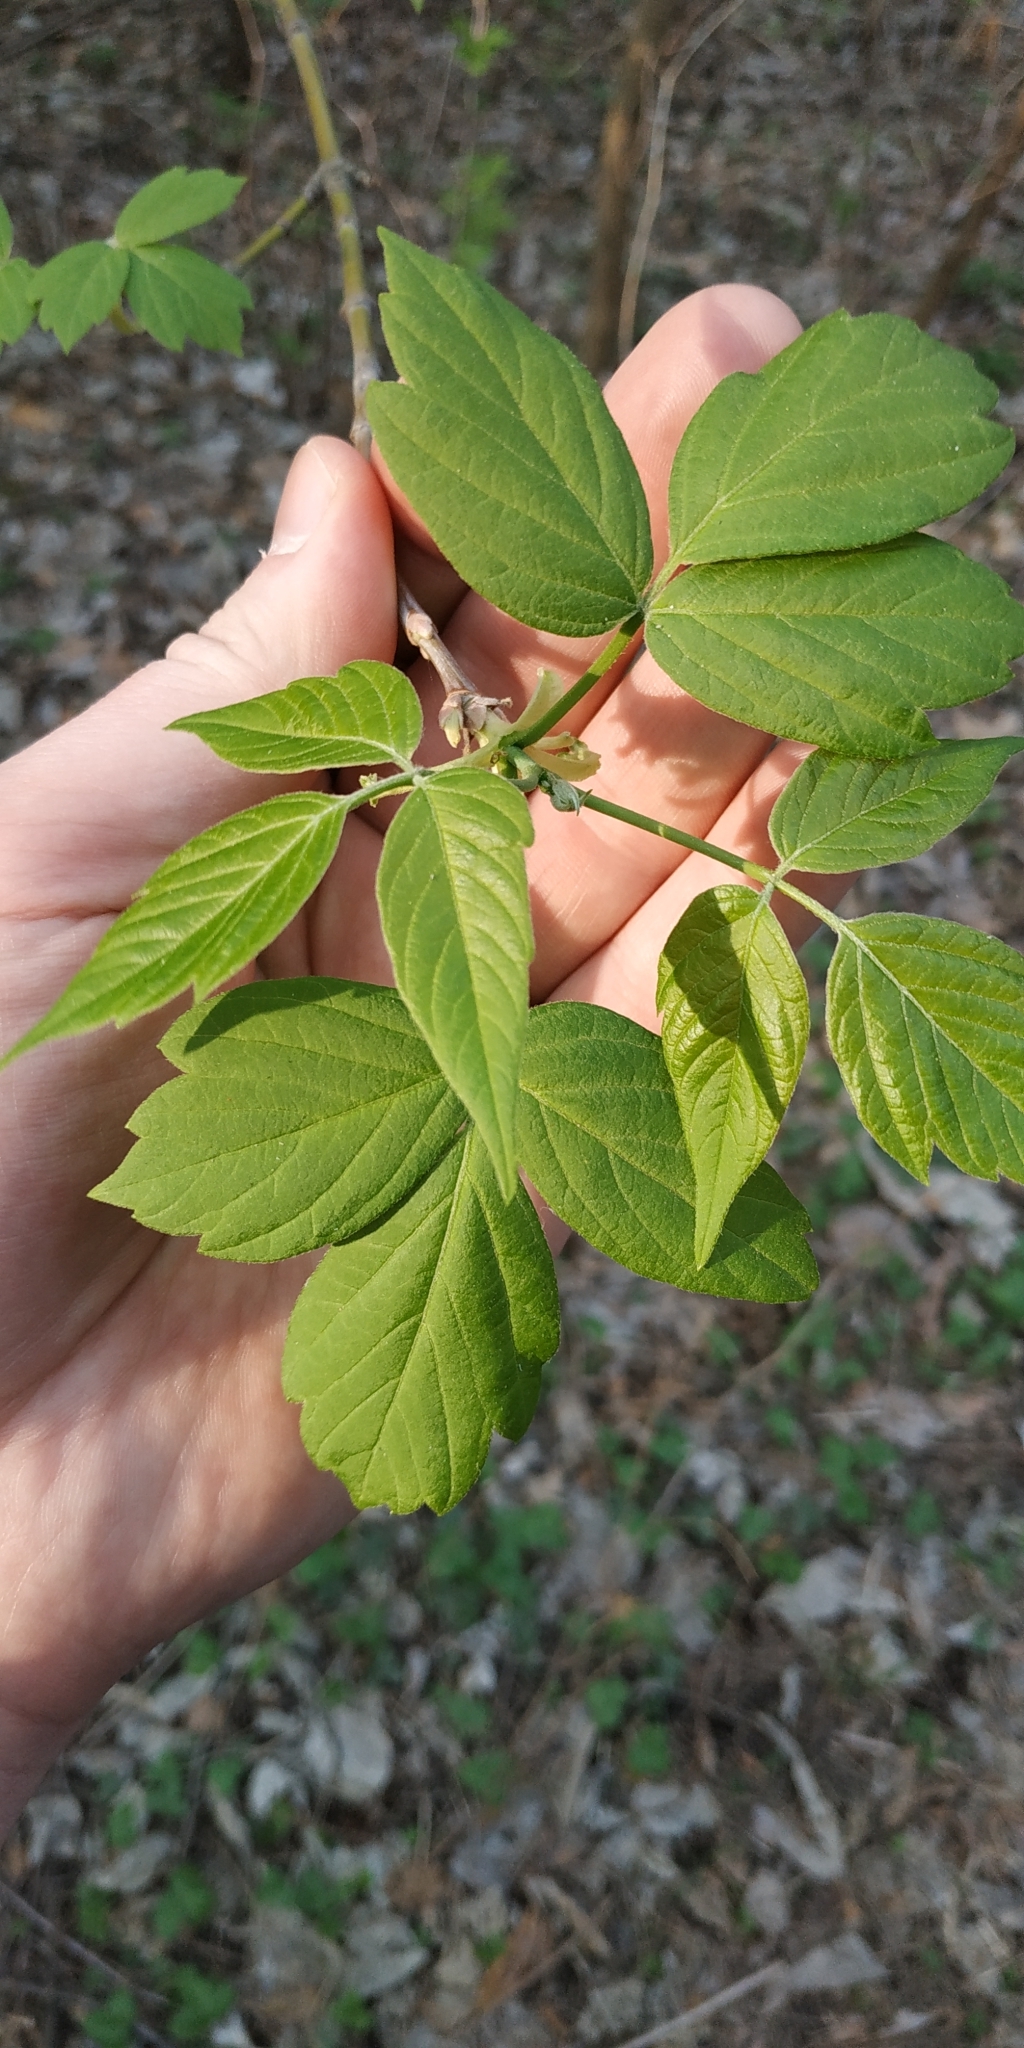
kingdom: Plantae
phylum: Tracheophyta
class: Magnoliopsida
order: Sapindales
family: Sapindaceae
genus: Acer
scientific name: Acer negundo
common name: Ashleaf maple
